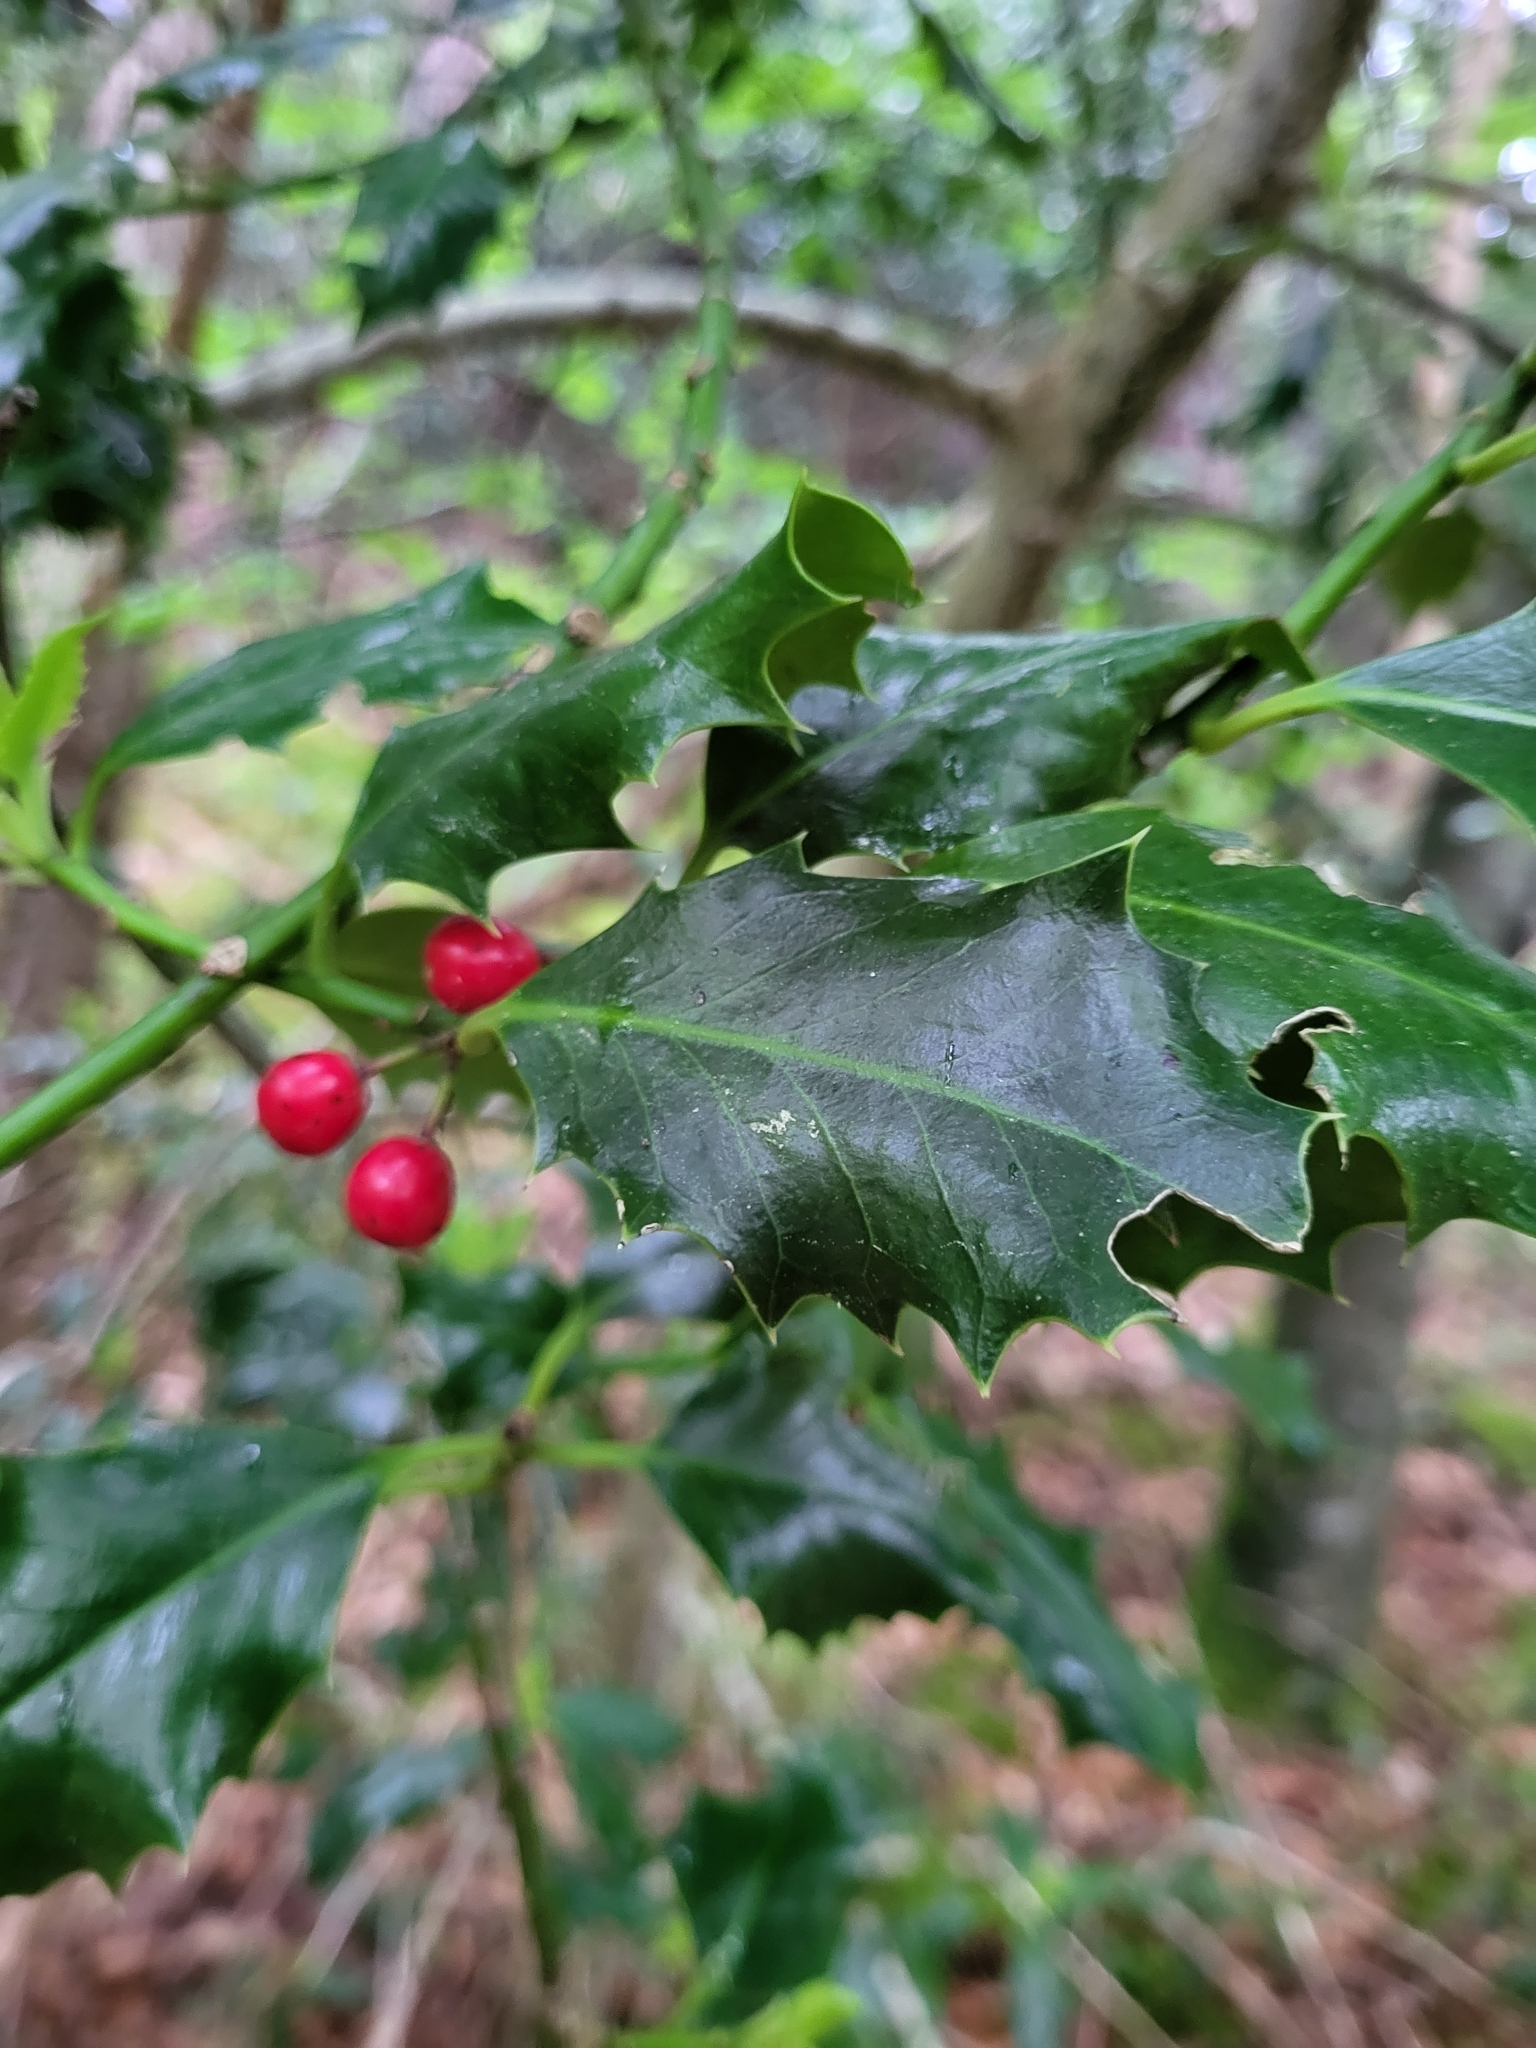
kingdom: Plantae
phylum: Tracheophyta
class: Magnoliopsida
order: Aquifoliales
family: Aquifoliaceae
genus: Ilex
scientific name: Ilex aquifolium
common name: English holly
